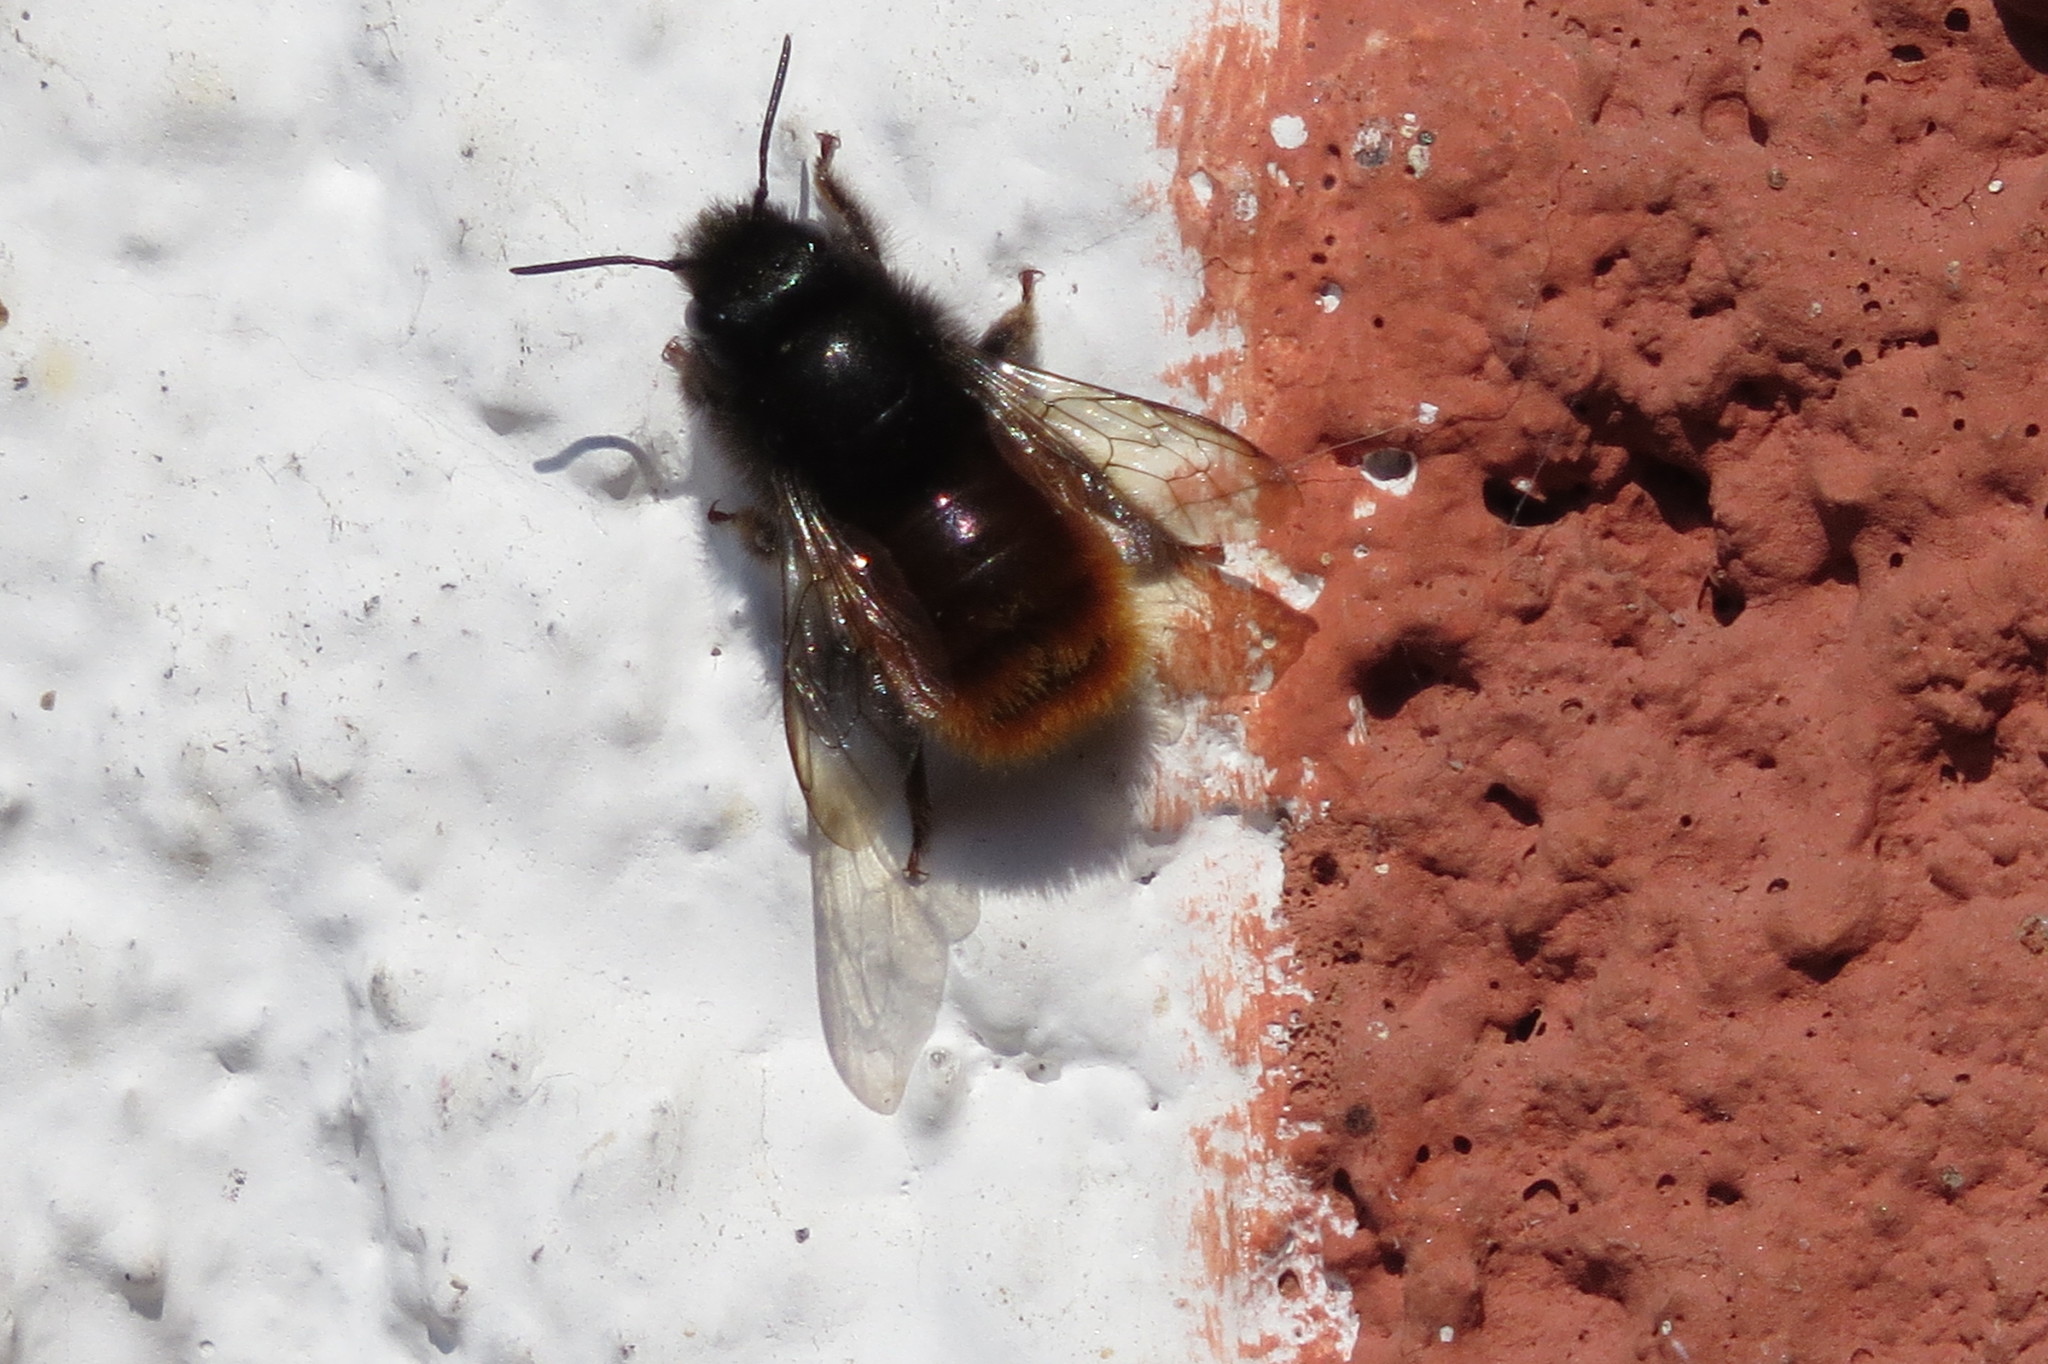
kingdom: Animalia
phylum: Arthropoda
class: Insecta
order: Hymenoptera
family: Megachilidae
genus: Osmia
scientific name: Osmia cornuta
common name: Mason bee
